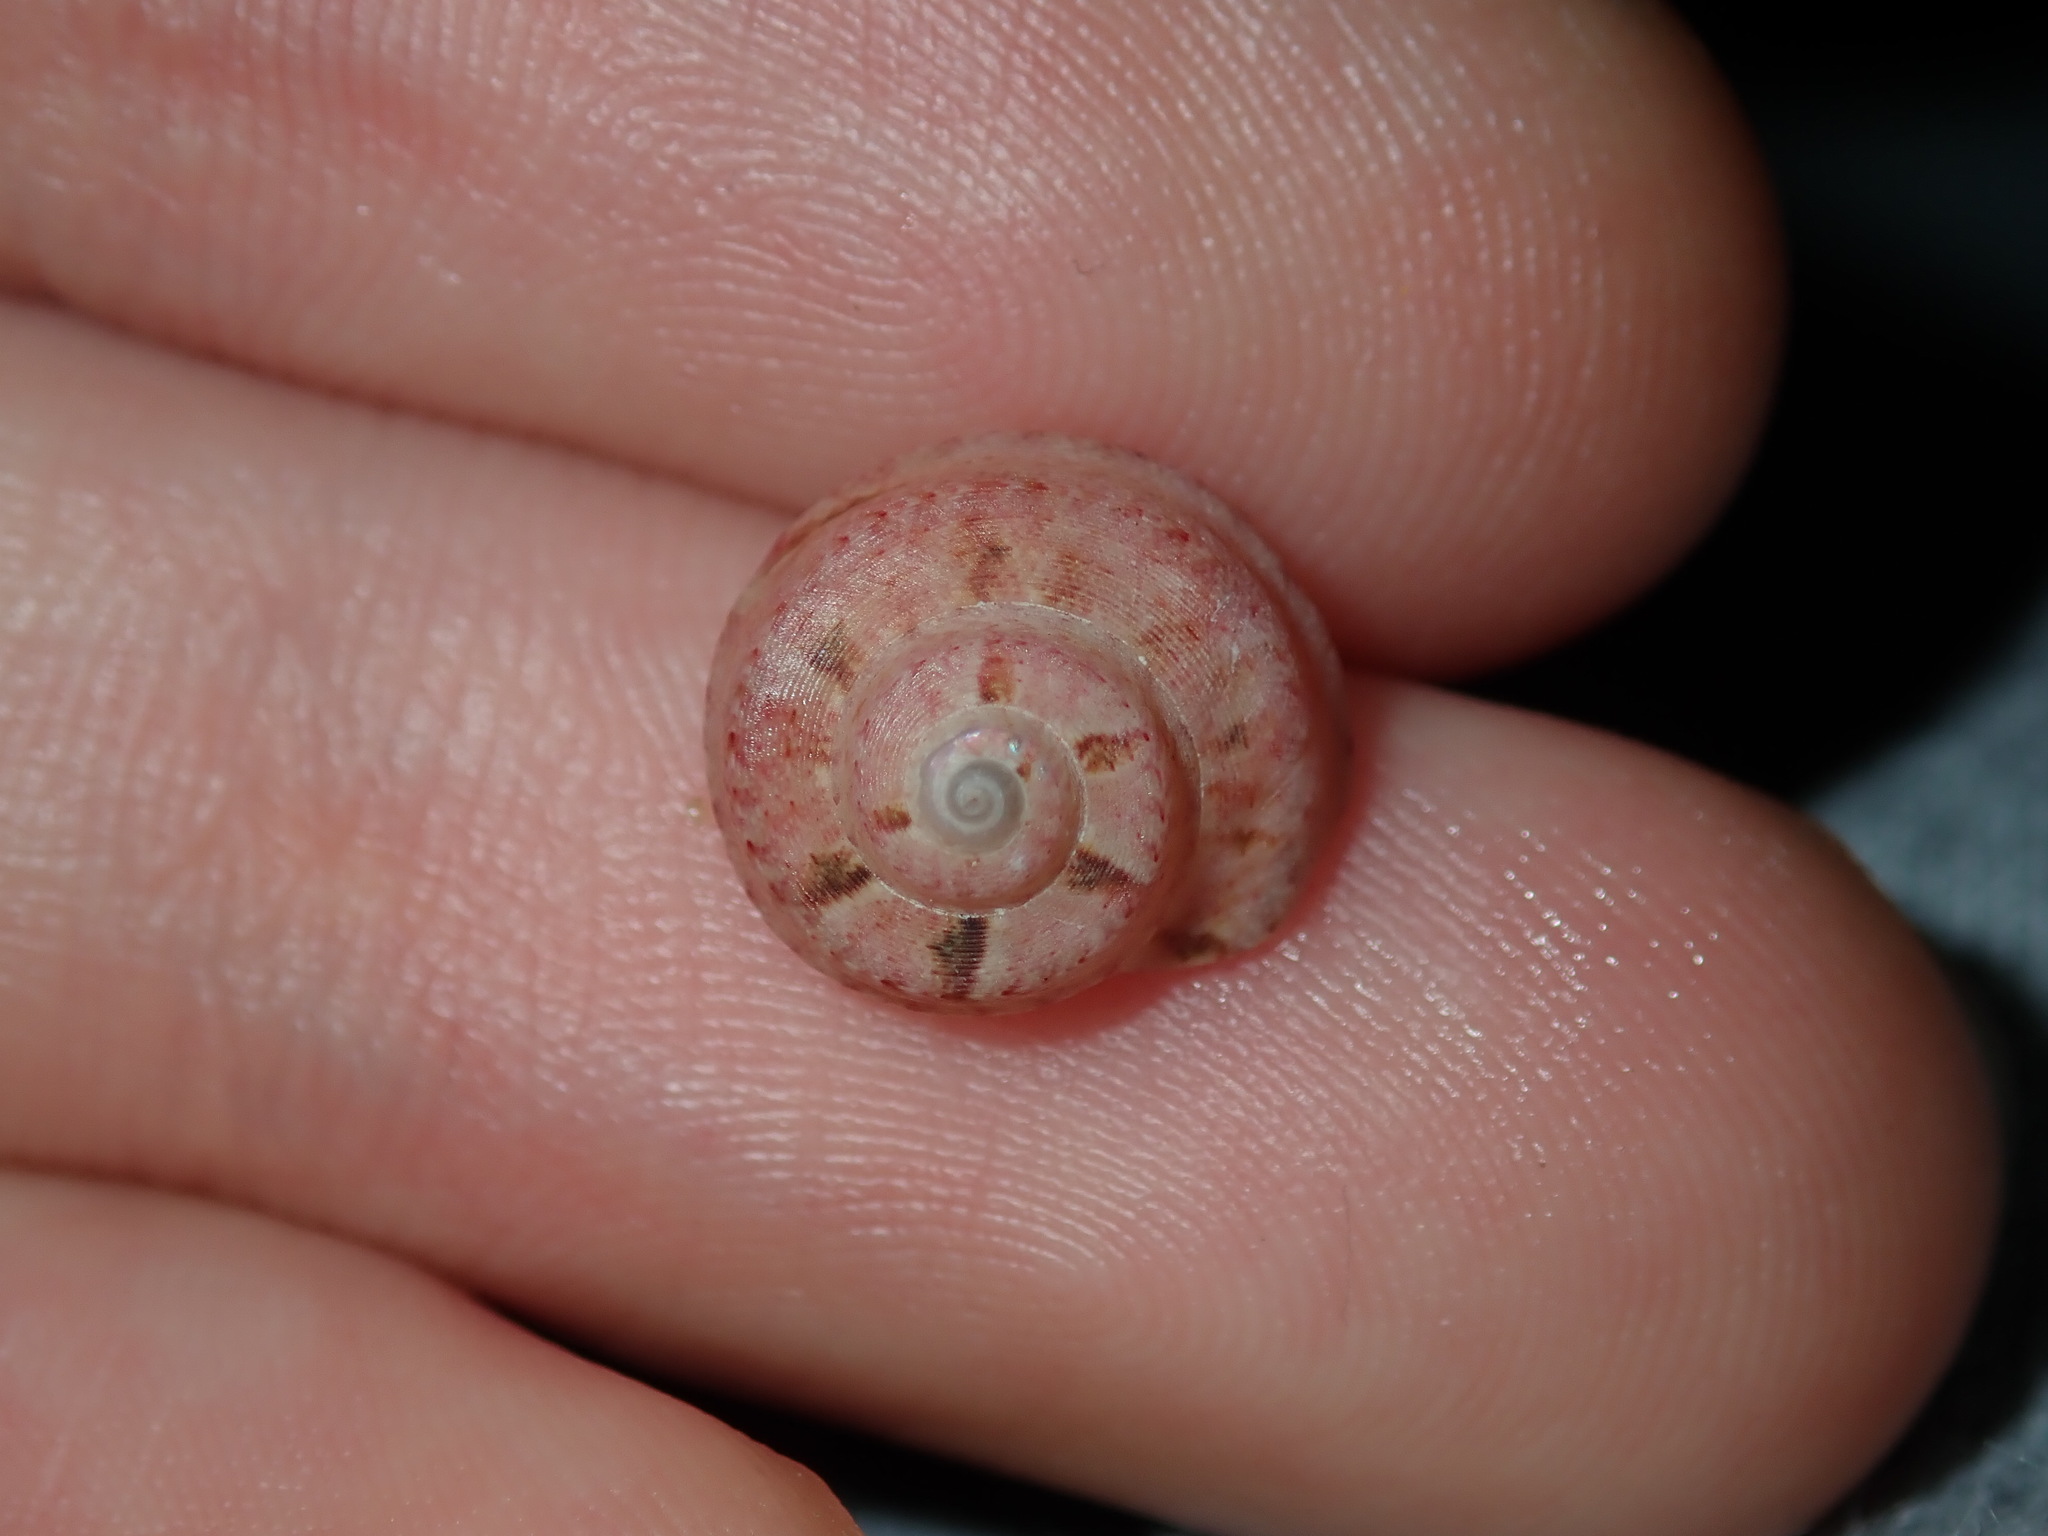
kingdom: Animalia
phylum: Mollusca
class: Gastropoda
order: Trochida
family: Trochidae
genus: Notogibbula
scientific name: Notogibbula bicarinata
